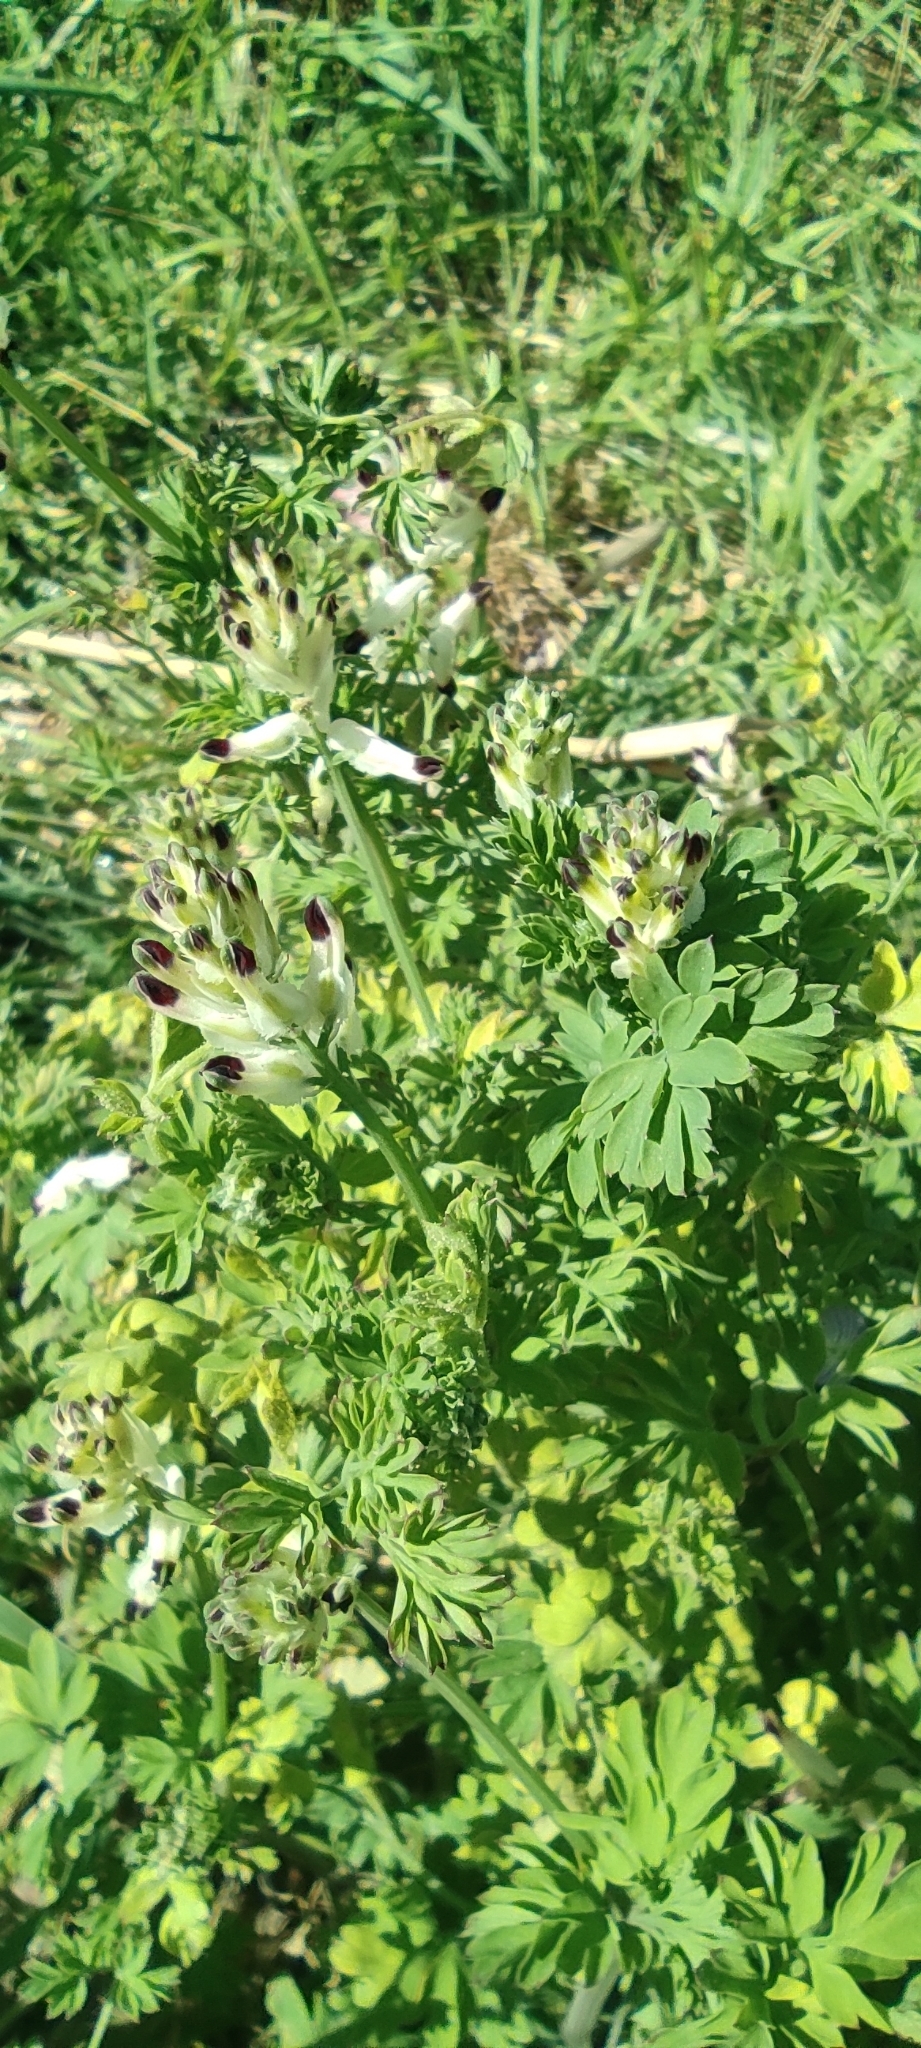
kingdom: Plantae
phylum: Tracheophyta
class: Magnoliopsida
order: Ranunculales
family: Papaveraceae
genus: Fumaria
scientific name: Fumaria capreolata
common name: White ramping-fumitory
